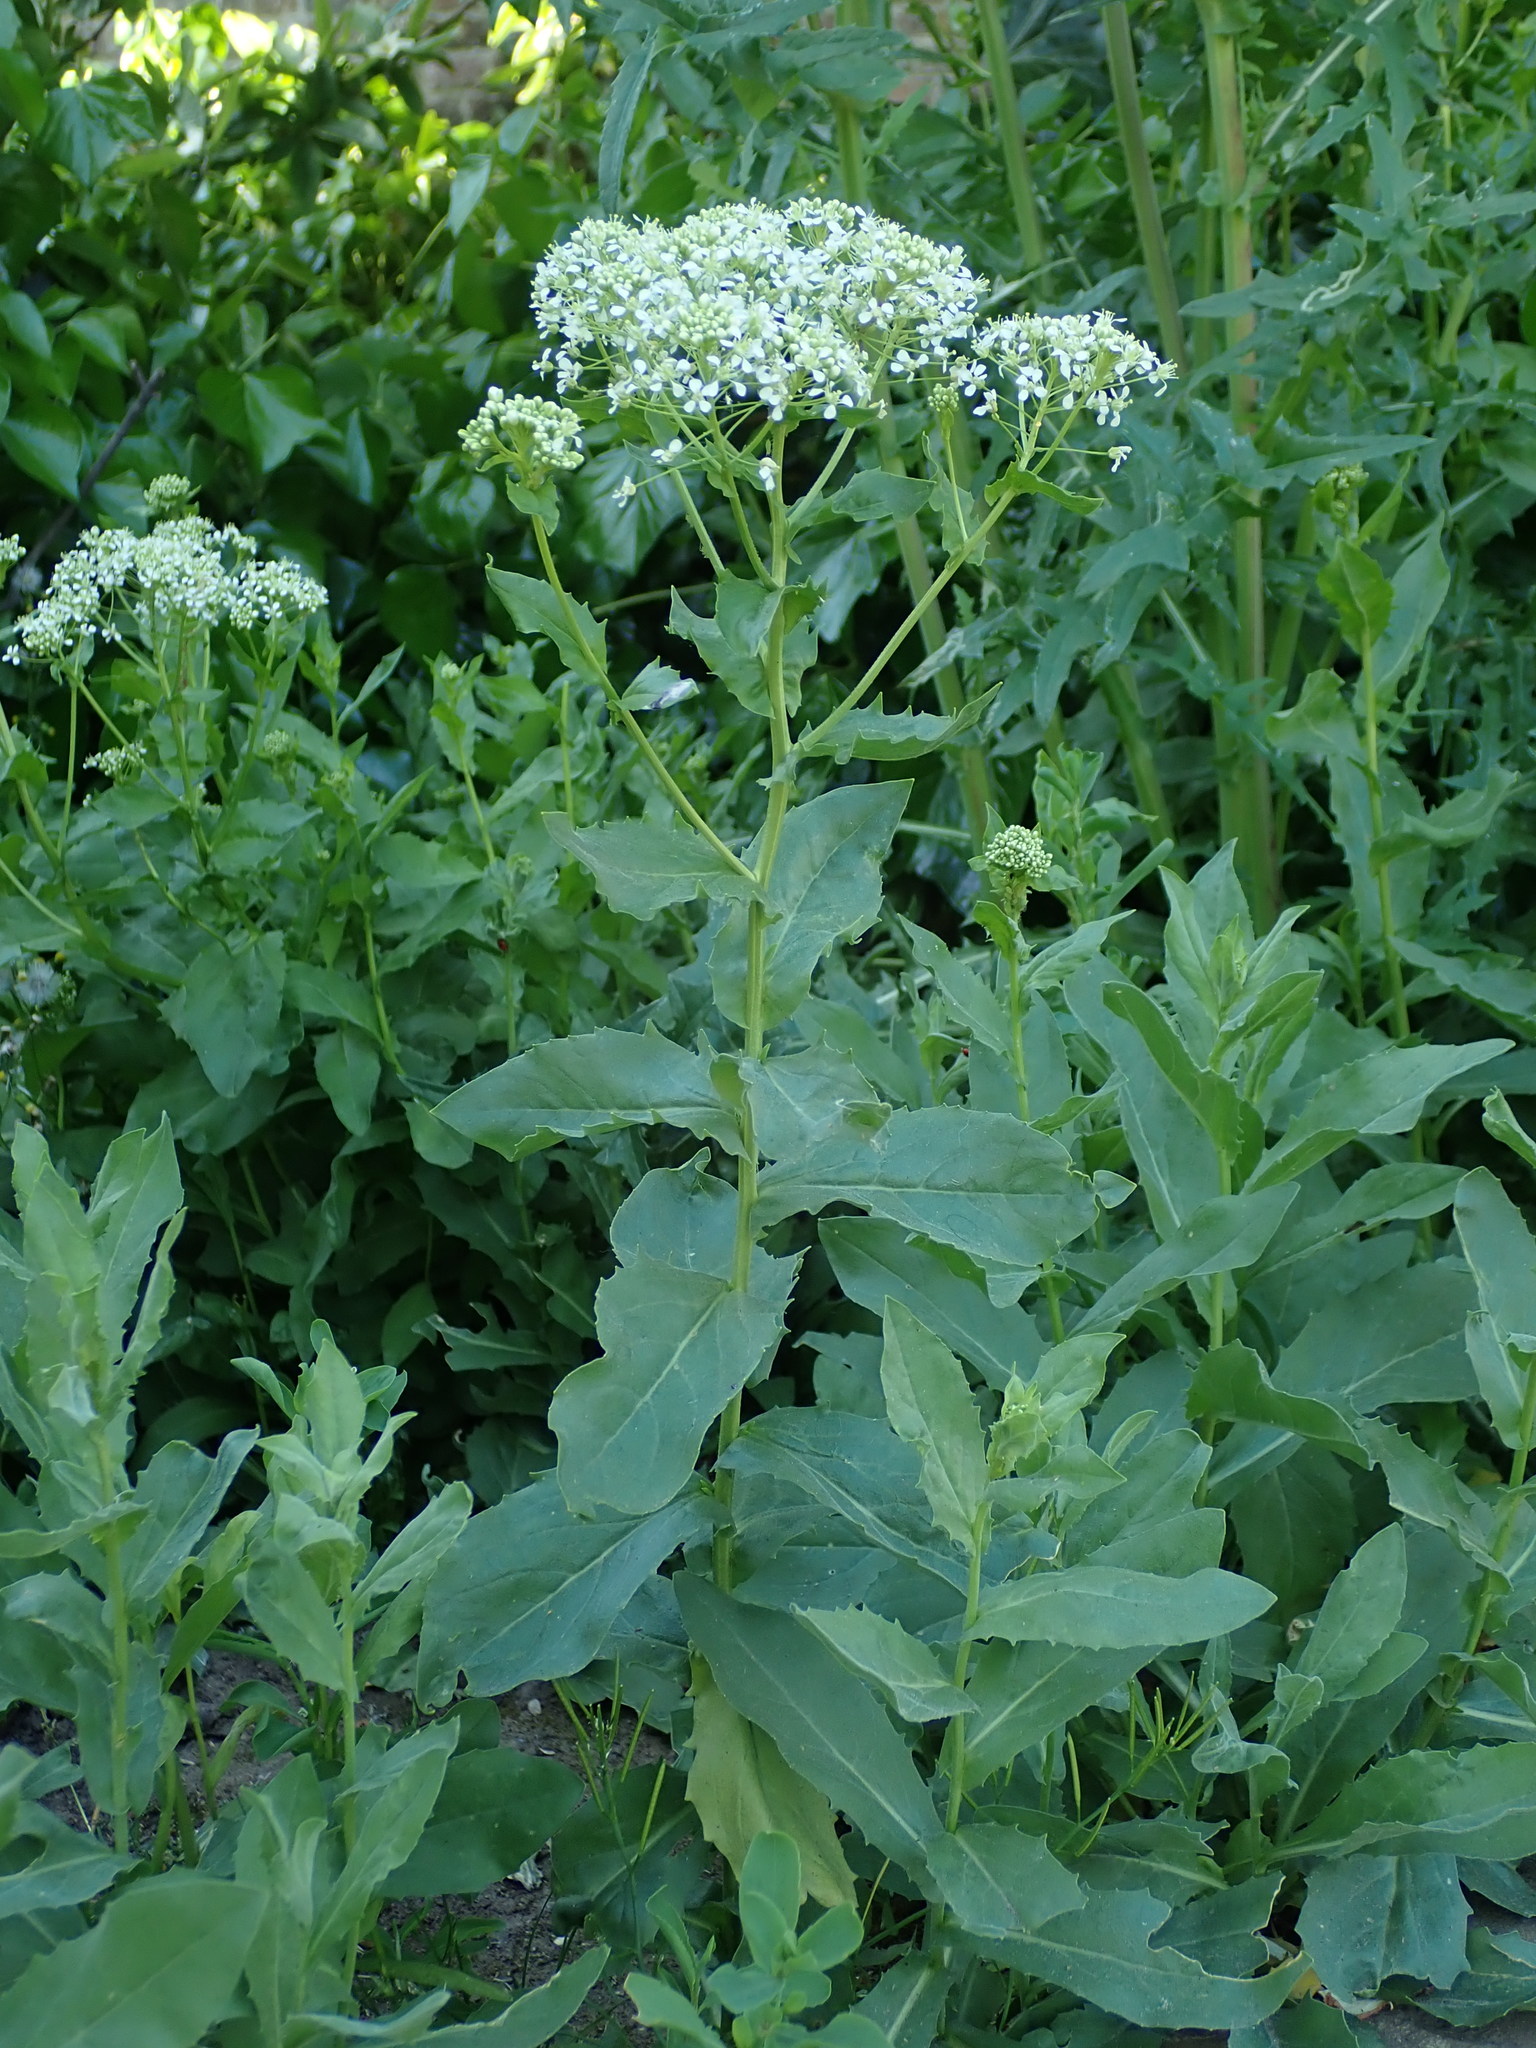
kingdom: Plantae
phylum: Tracheophyta
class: Magnoliopsida
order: Brassicales
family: Brassicaceae
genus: Lepidium
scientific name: Lepidium draba
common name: Hoary cress
